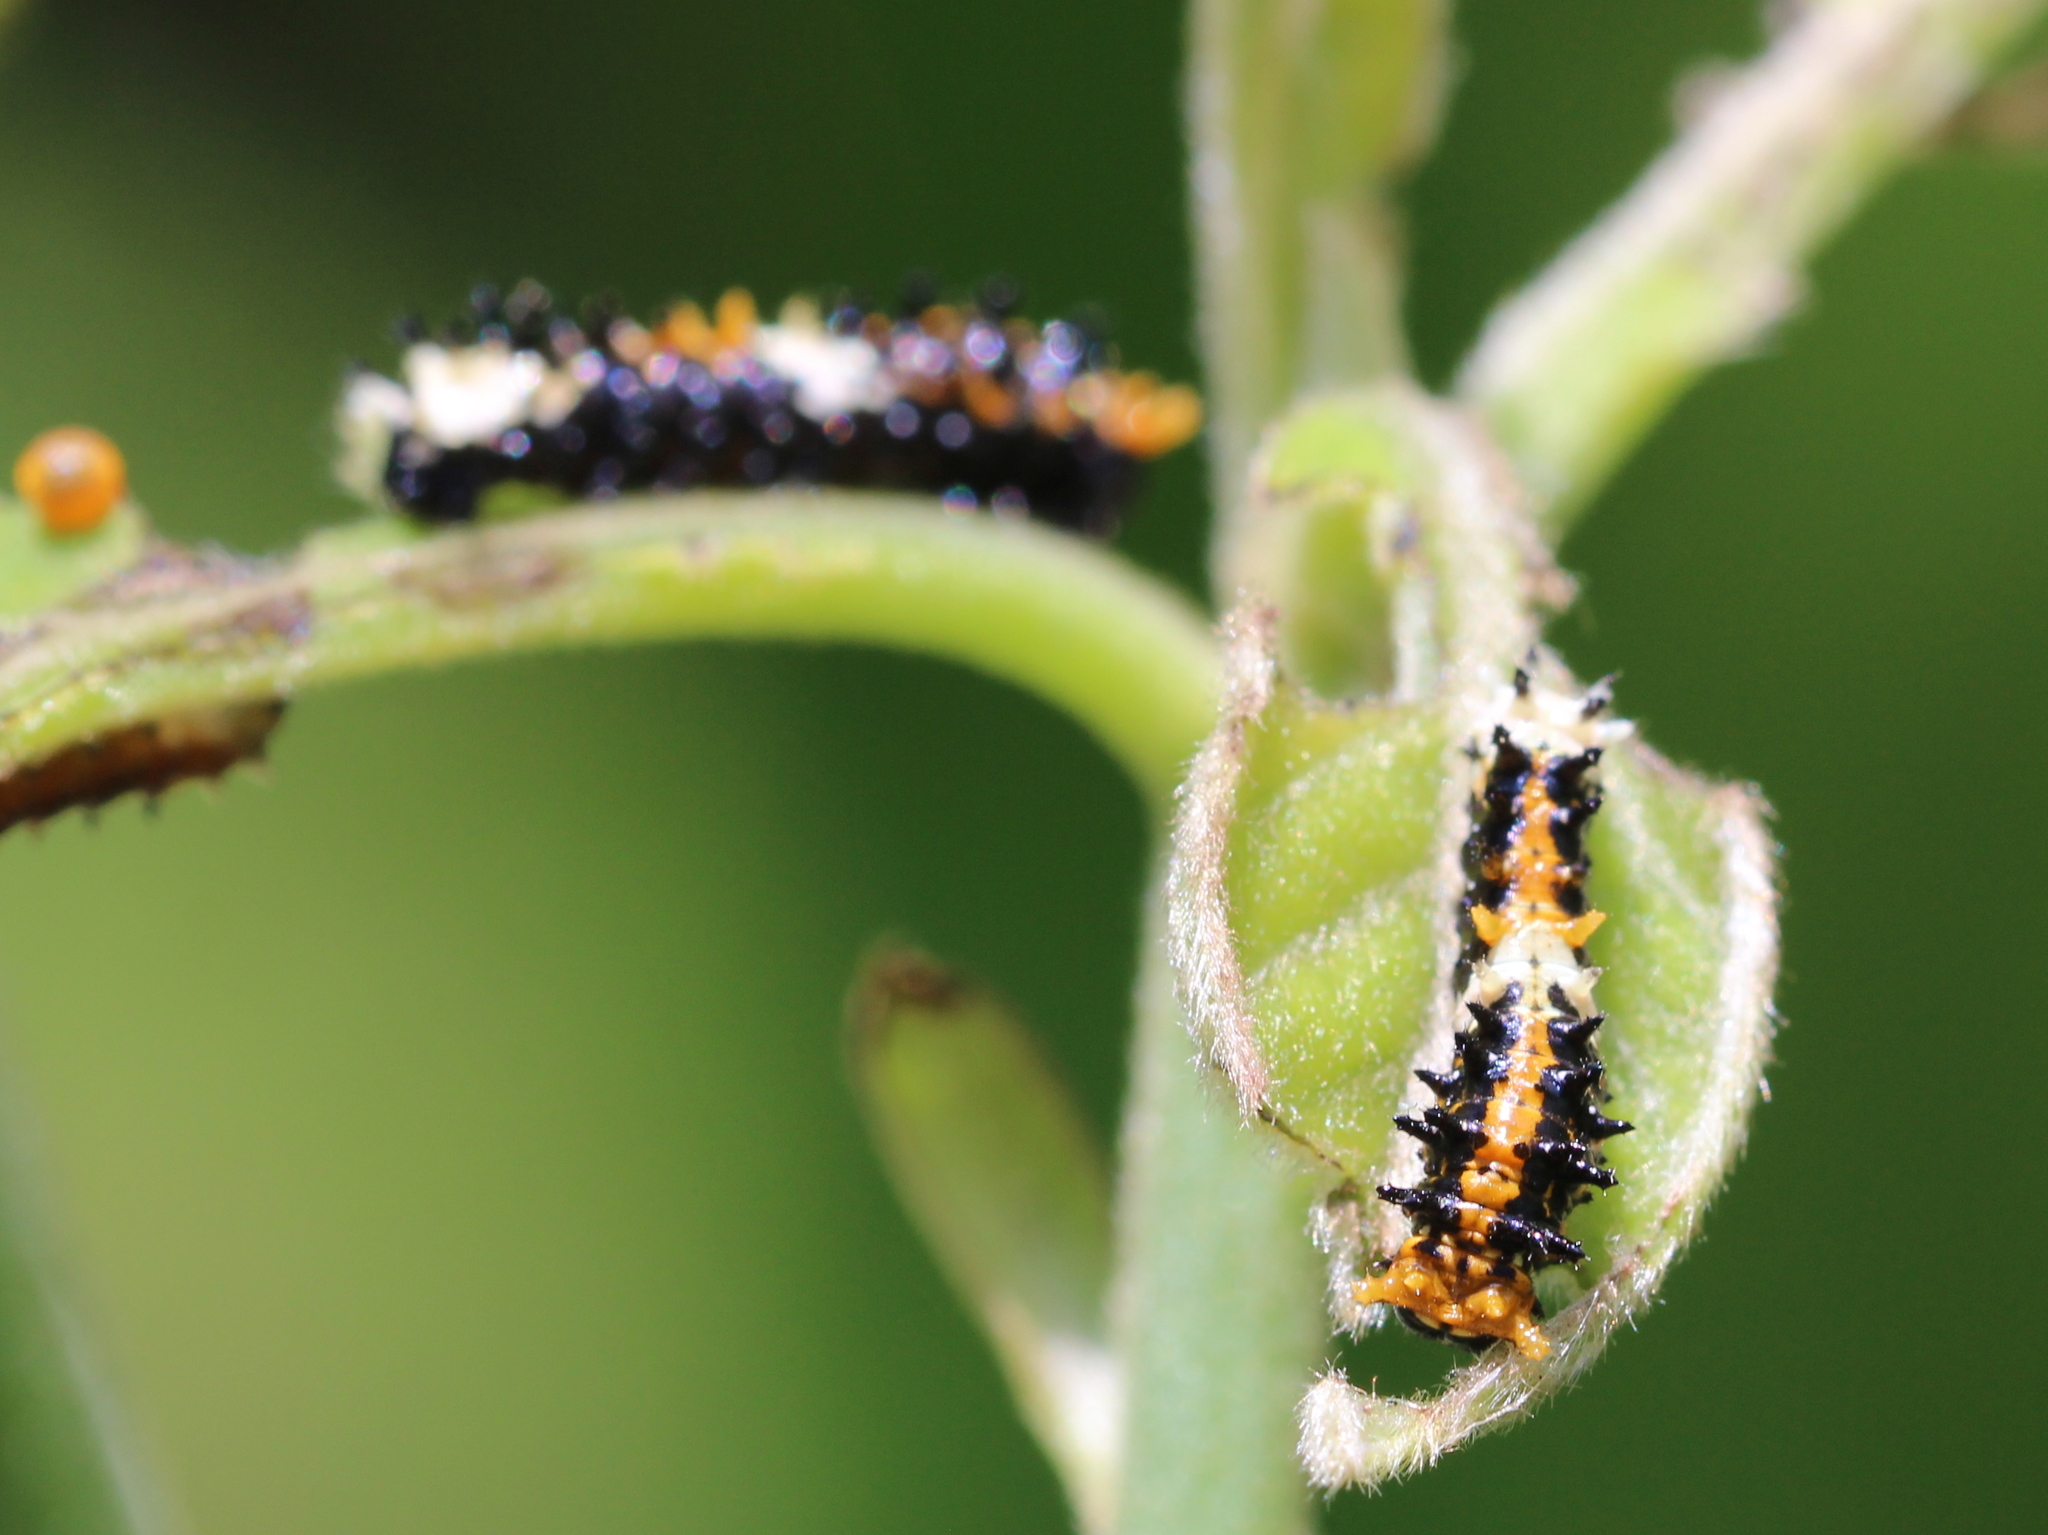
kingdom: Animalia
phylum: Arthropoda
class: Insecta
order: Lepidoptera
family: Papilionidae
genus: Chilasa
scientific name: Chilasa clytia
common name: Common mime
